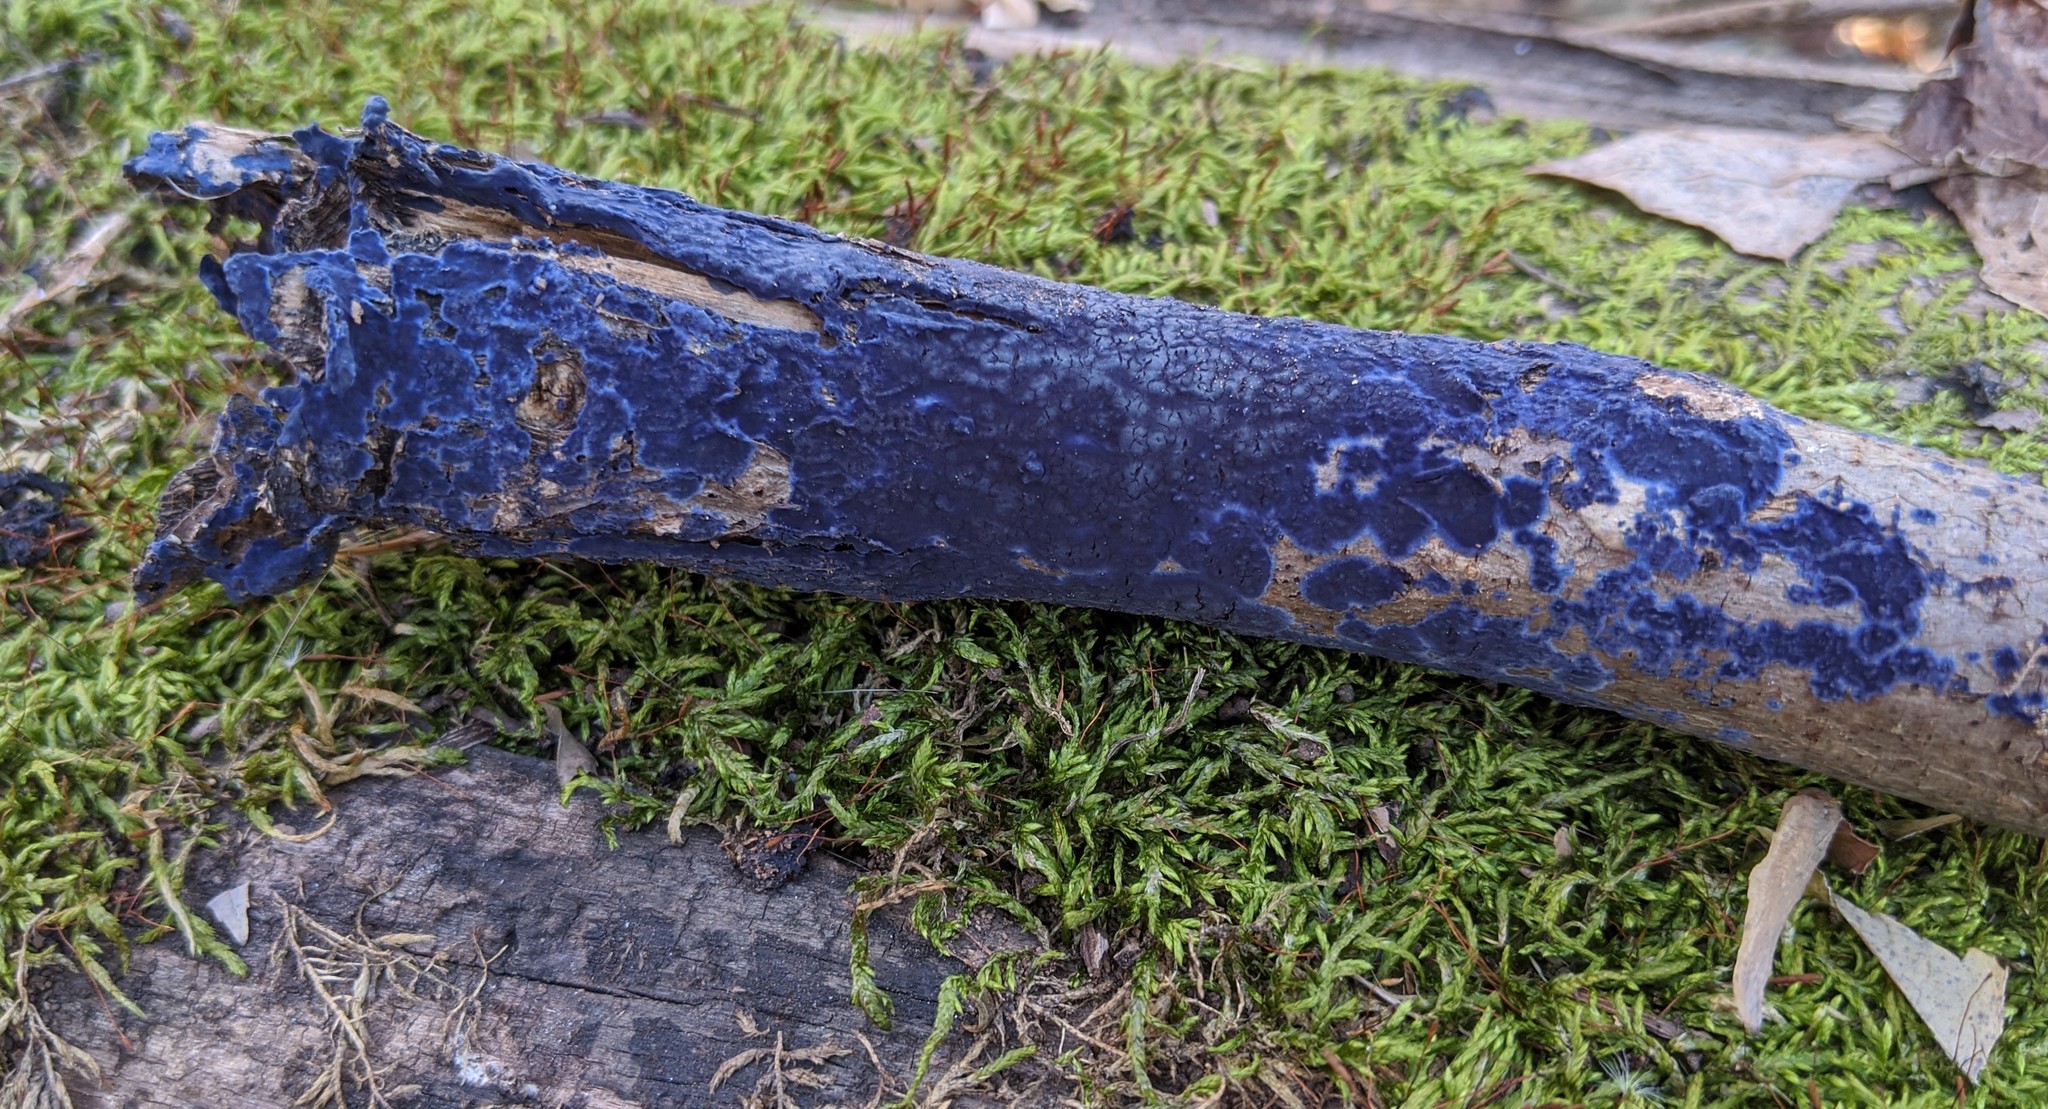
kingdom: Fungi
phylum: Basidiomycota
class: Agaricomycetes
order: Polyporales
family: Phanerochaetaceae
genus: Terana
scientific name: Terana coerulea
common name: Cobalt crust
